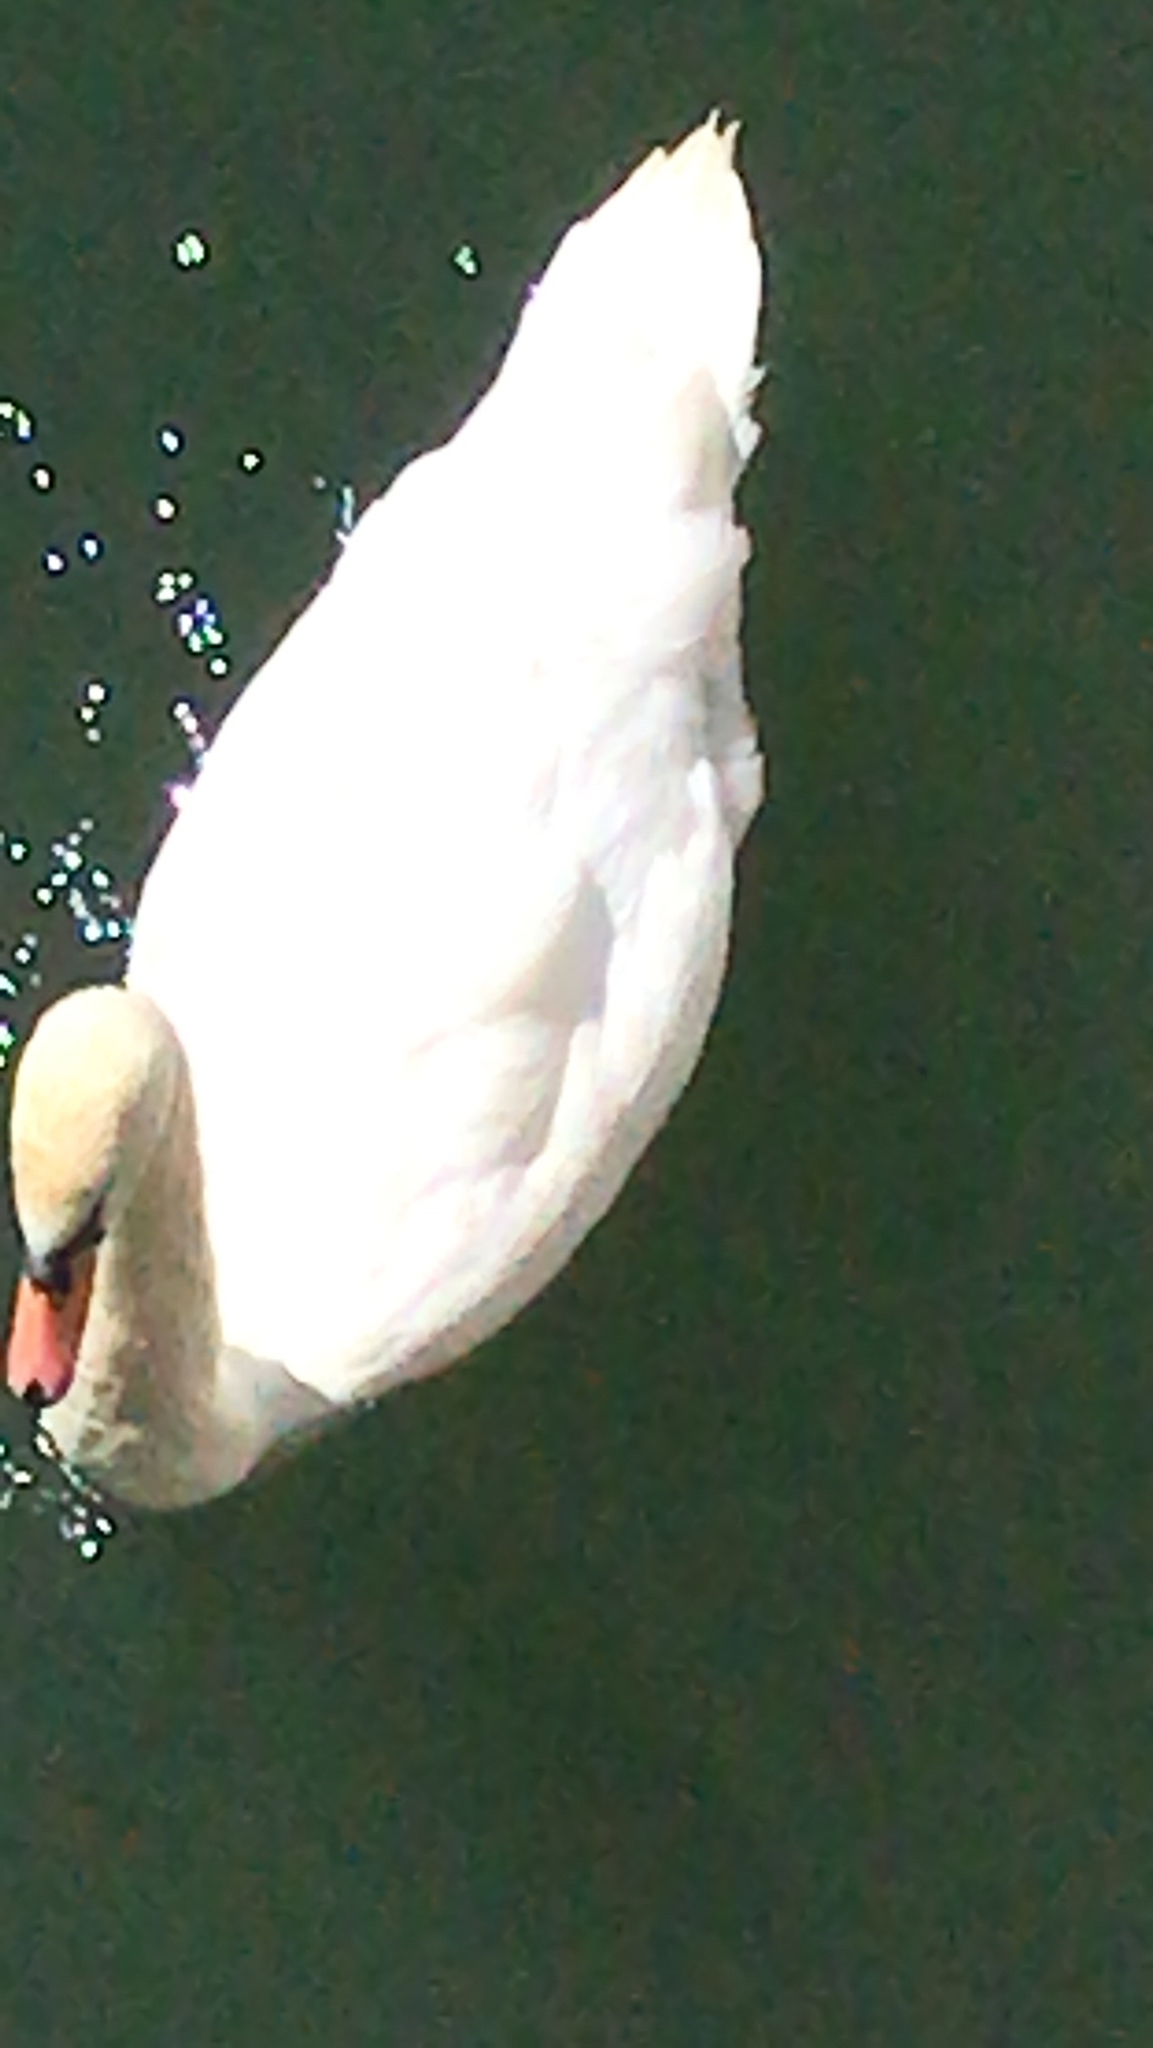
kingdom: Animalia
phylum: Chordata
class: Aves
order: Anseriformes
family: Anatidae
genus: Cygnus
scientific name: Cygnus olor
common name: Mute swan
